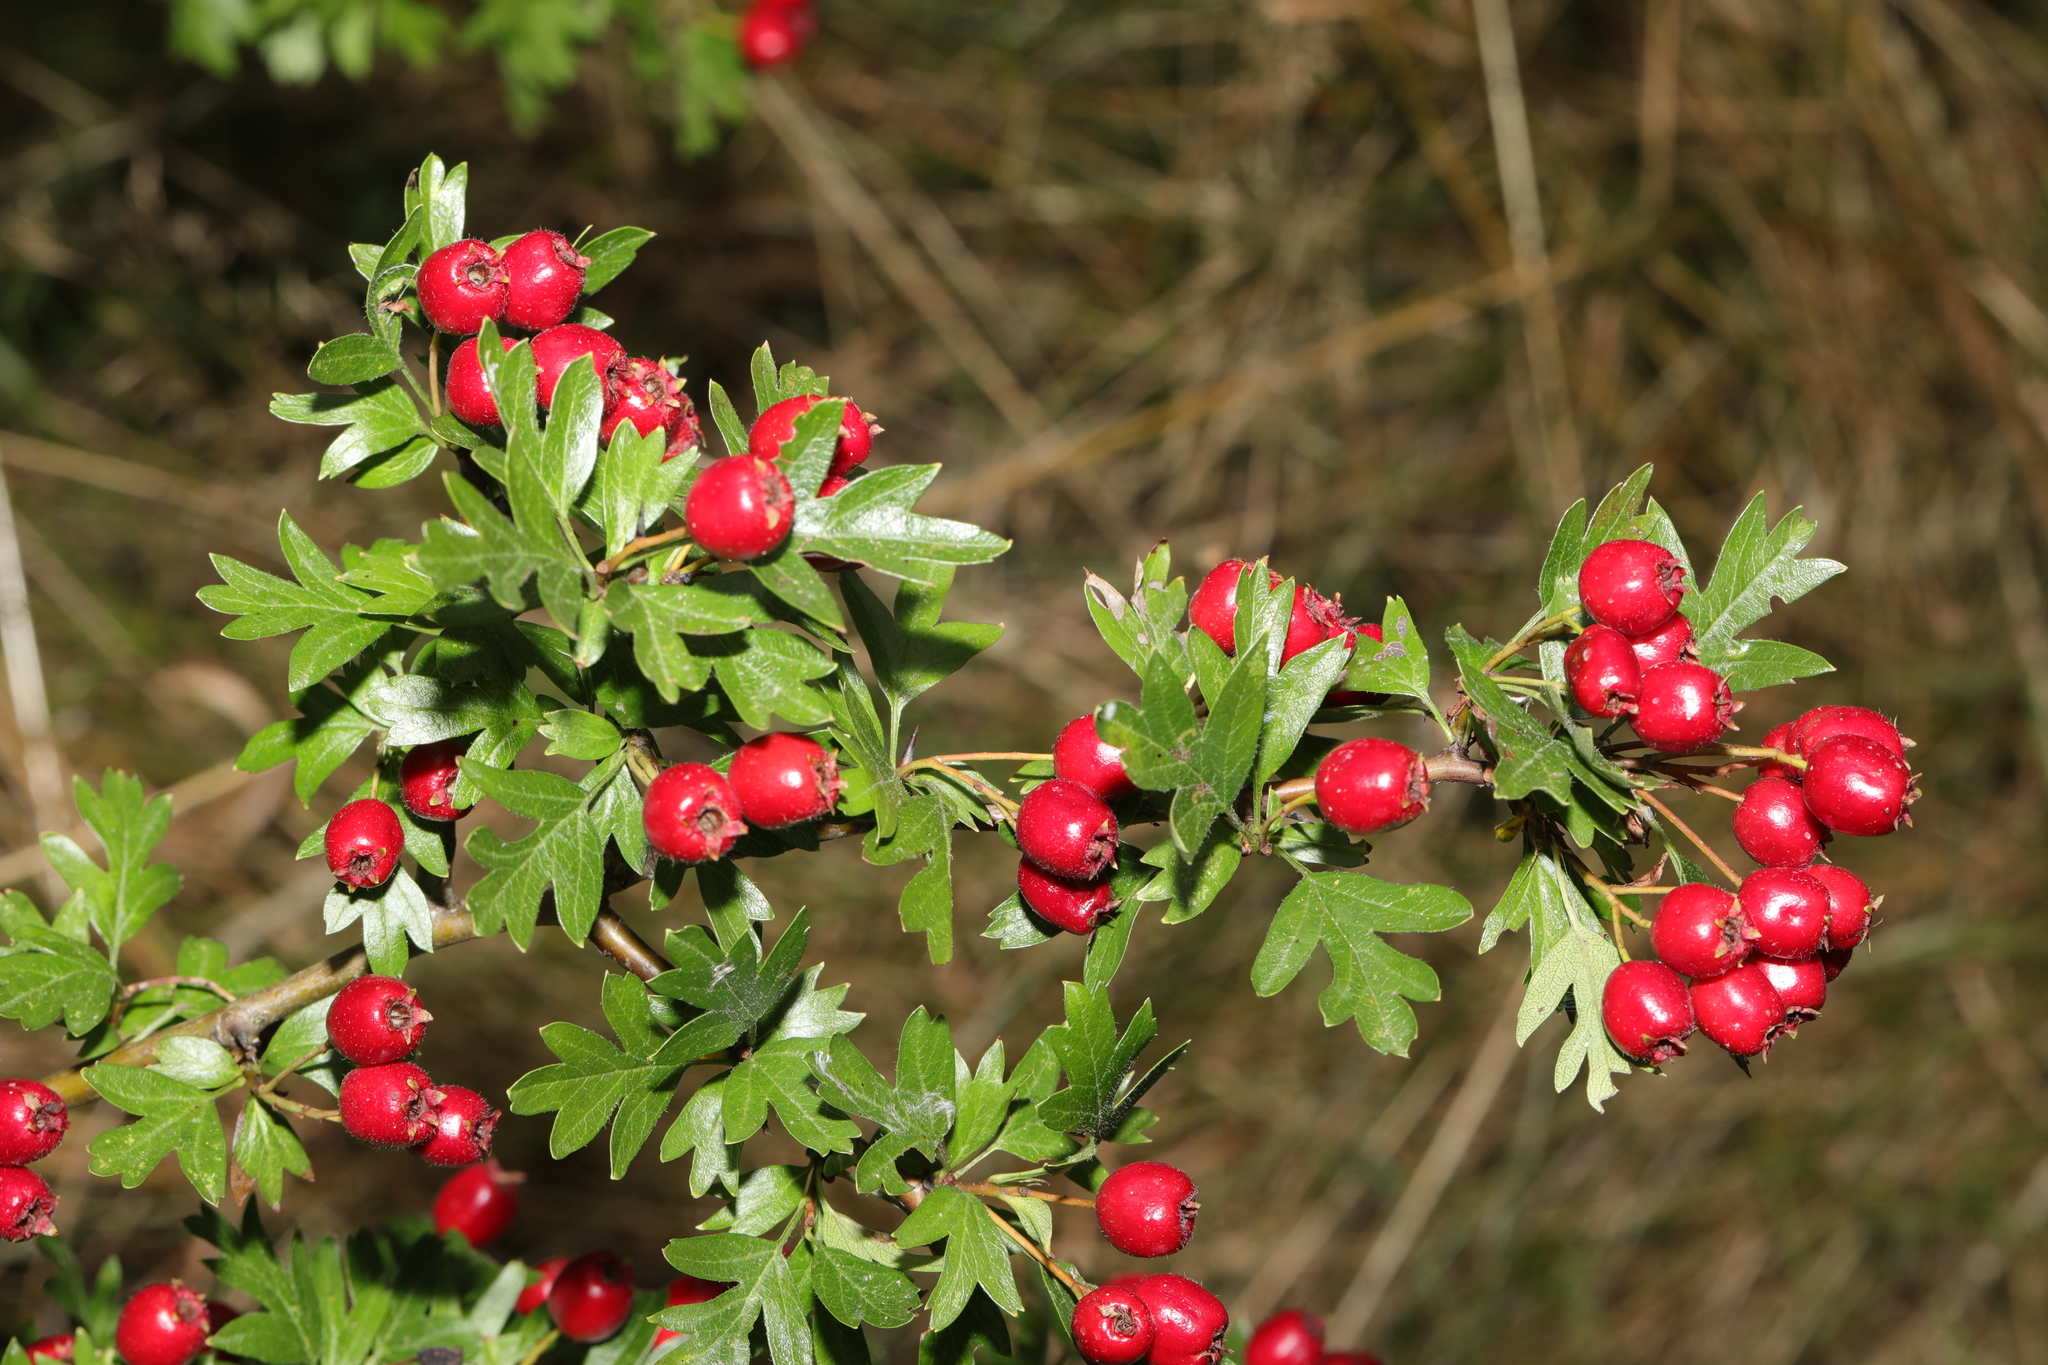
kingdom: Plantae
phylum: Tracheophyta
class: Magnoliopsida
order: Rosales
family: Rosaceae
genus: Crataegus
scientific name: Crataegus monogyna
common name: Hawthorn
